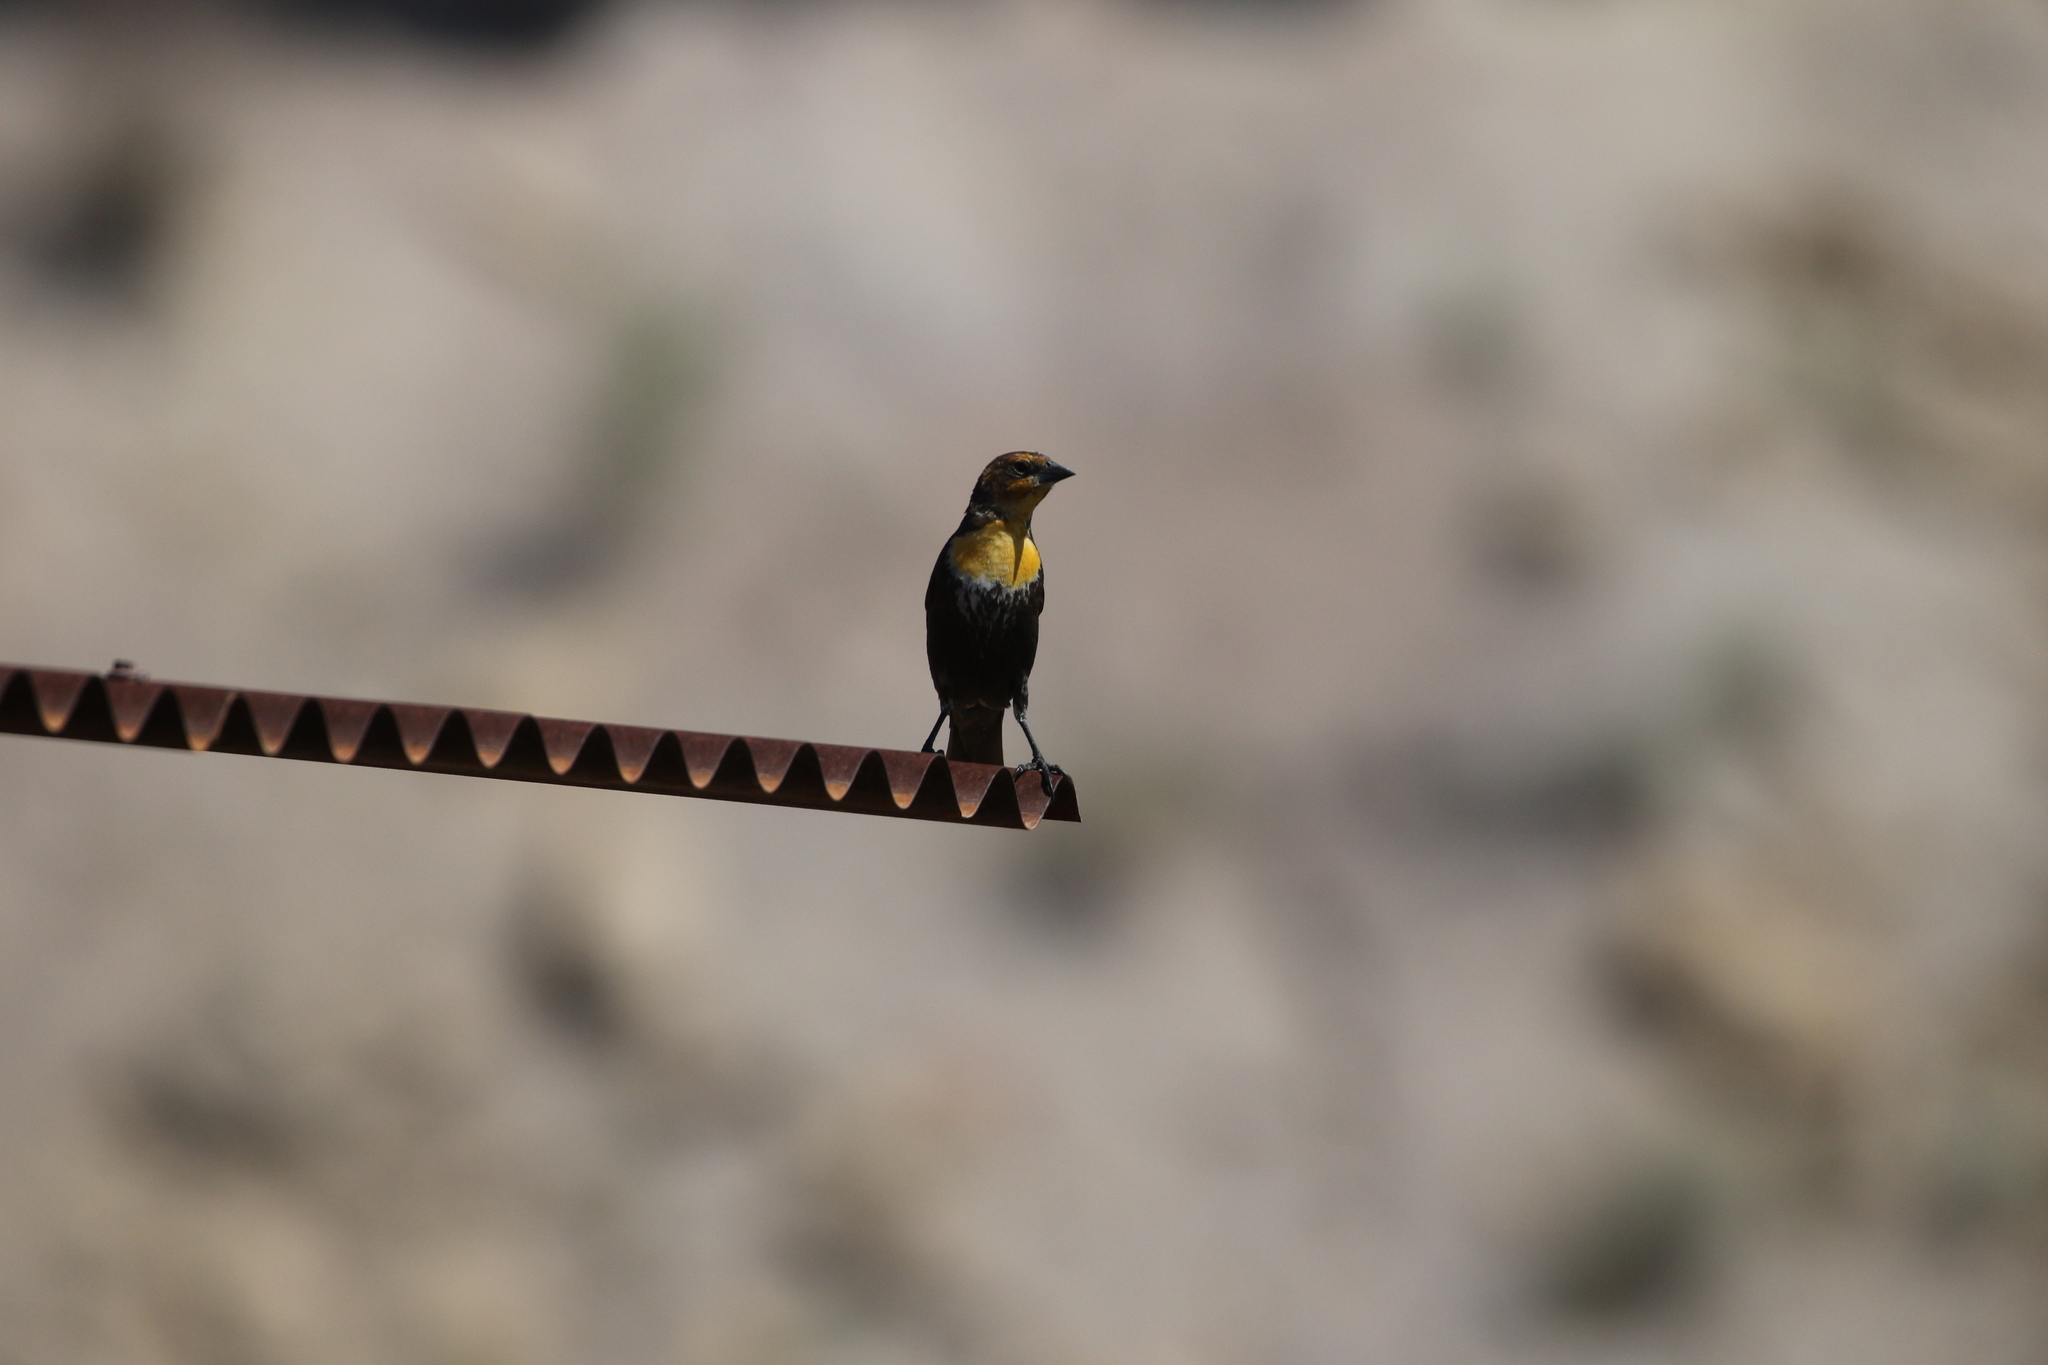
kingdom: Animalia
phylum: Chordata
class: Aves
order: Passeriformes
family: Icteridae
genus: Xanthocephalus
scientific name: Xanthocephalus xanthocephalus
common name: Yellow-headed blackbird
